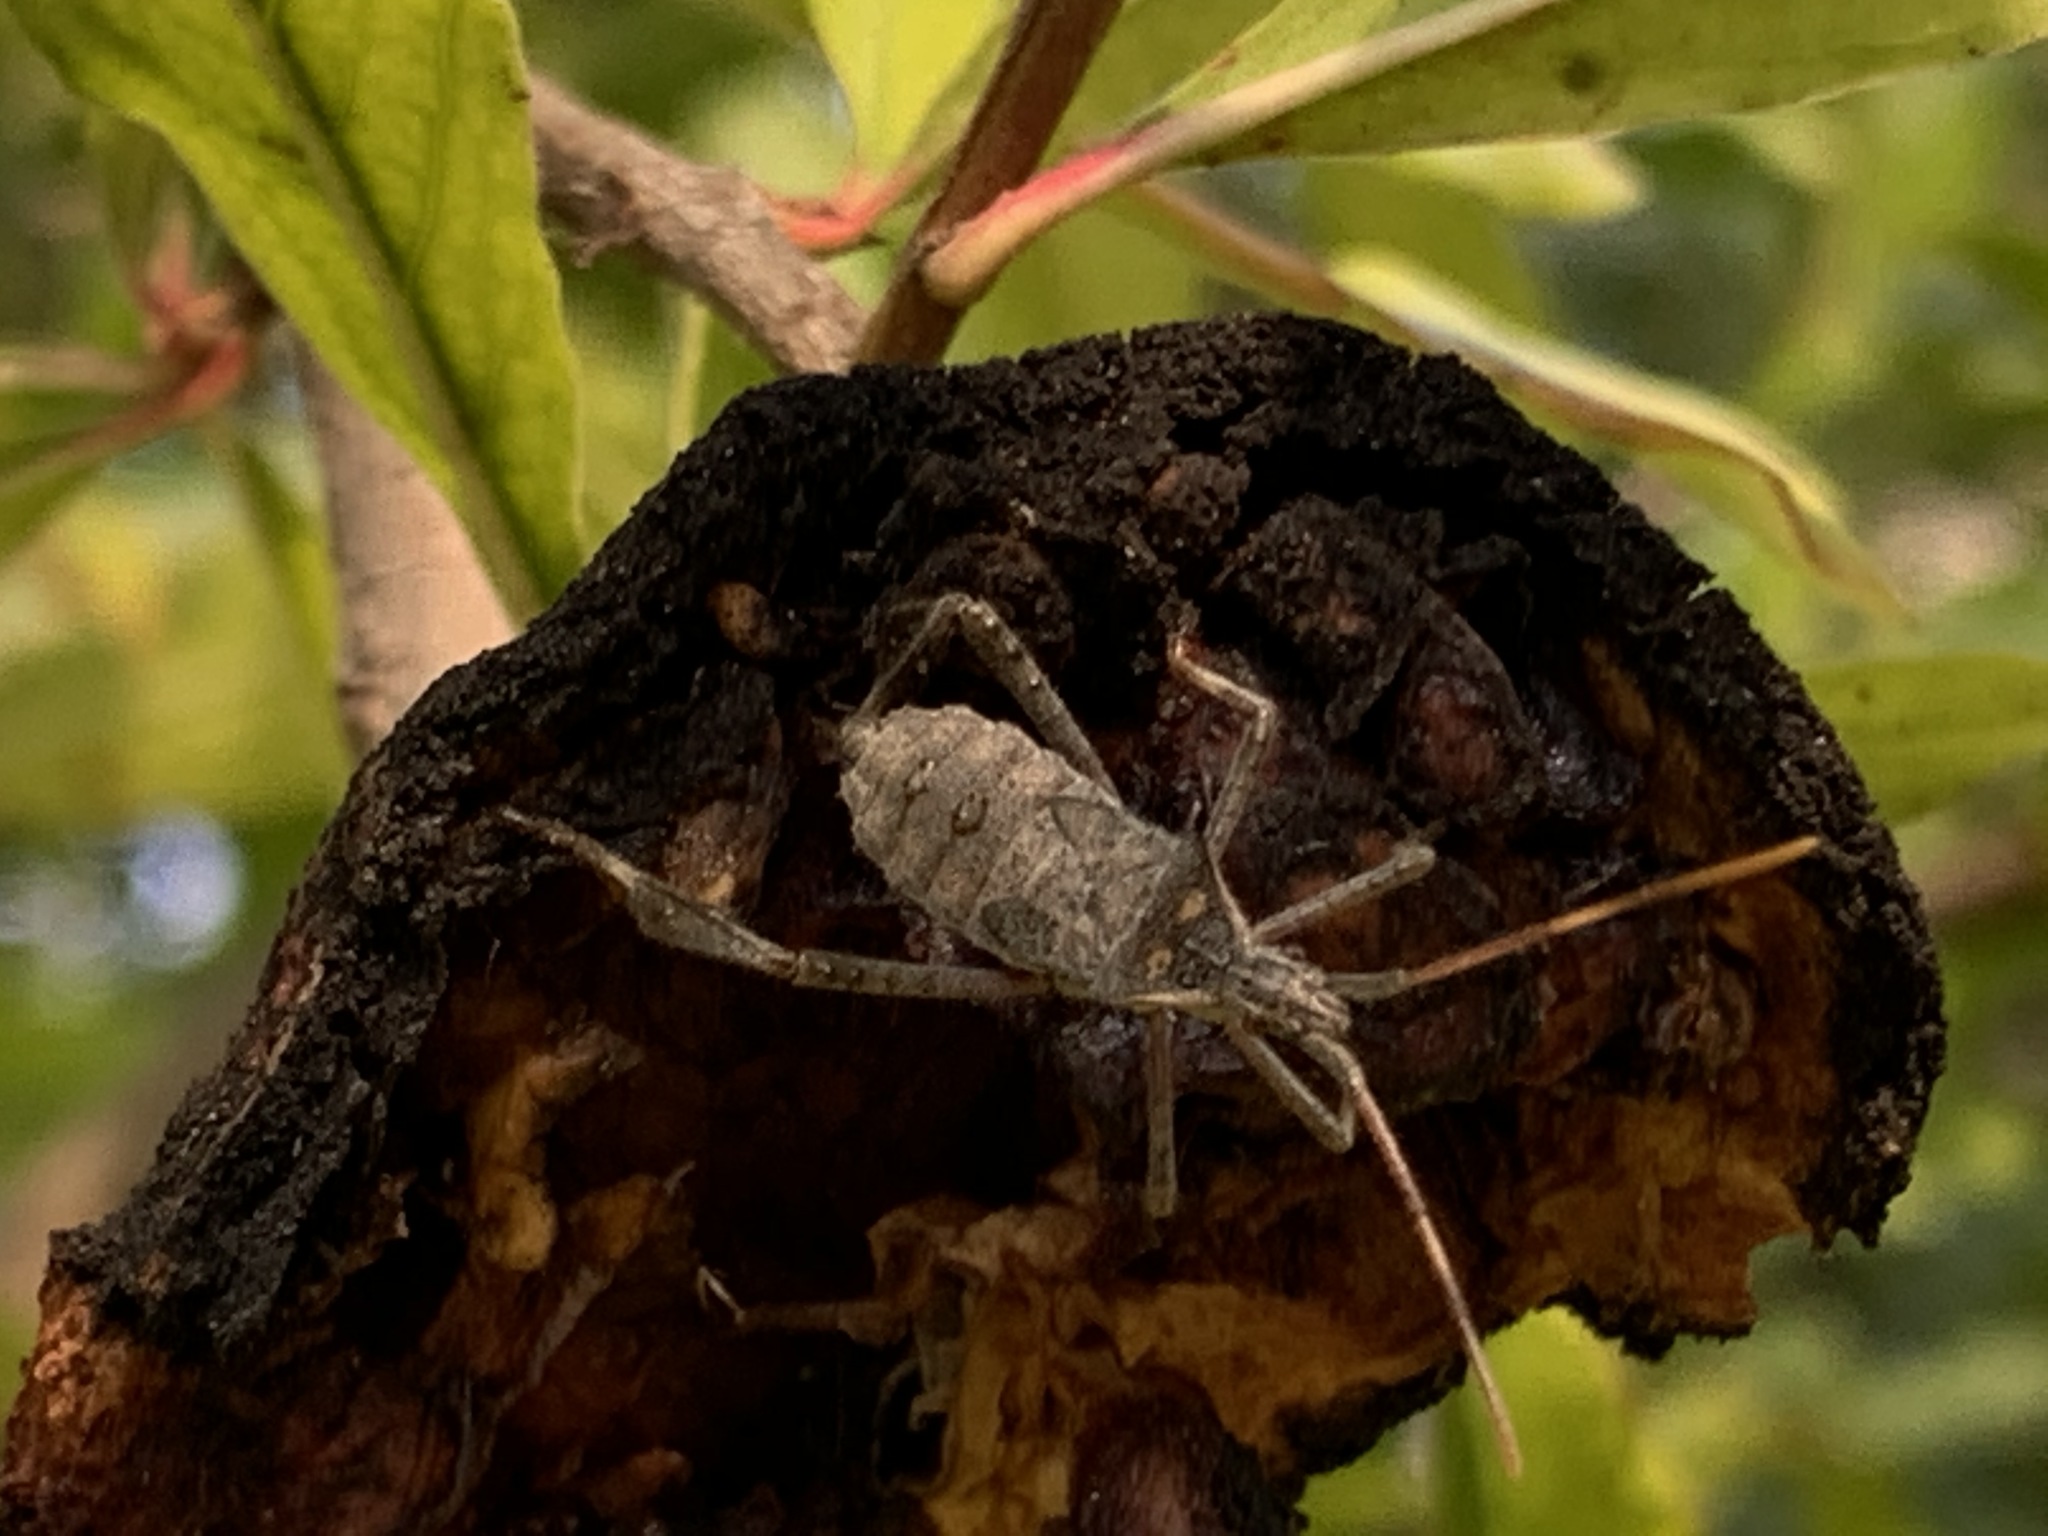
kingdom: Animalia
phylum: Arthropoda
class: Insecta
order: Hemiptera
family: Coreidae
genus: Leptoglossus
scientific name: Leptoglossus zonatus
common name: Large-legged bug
